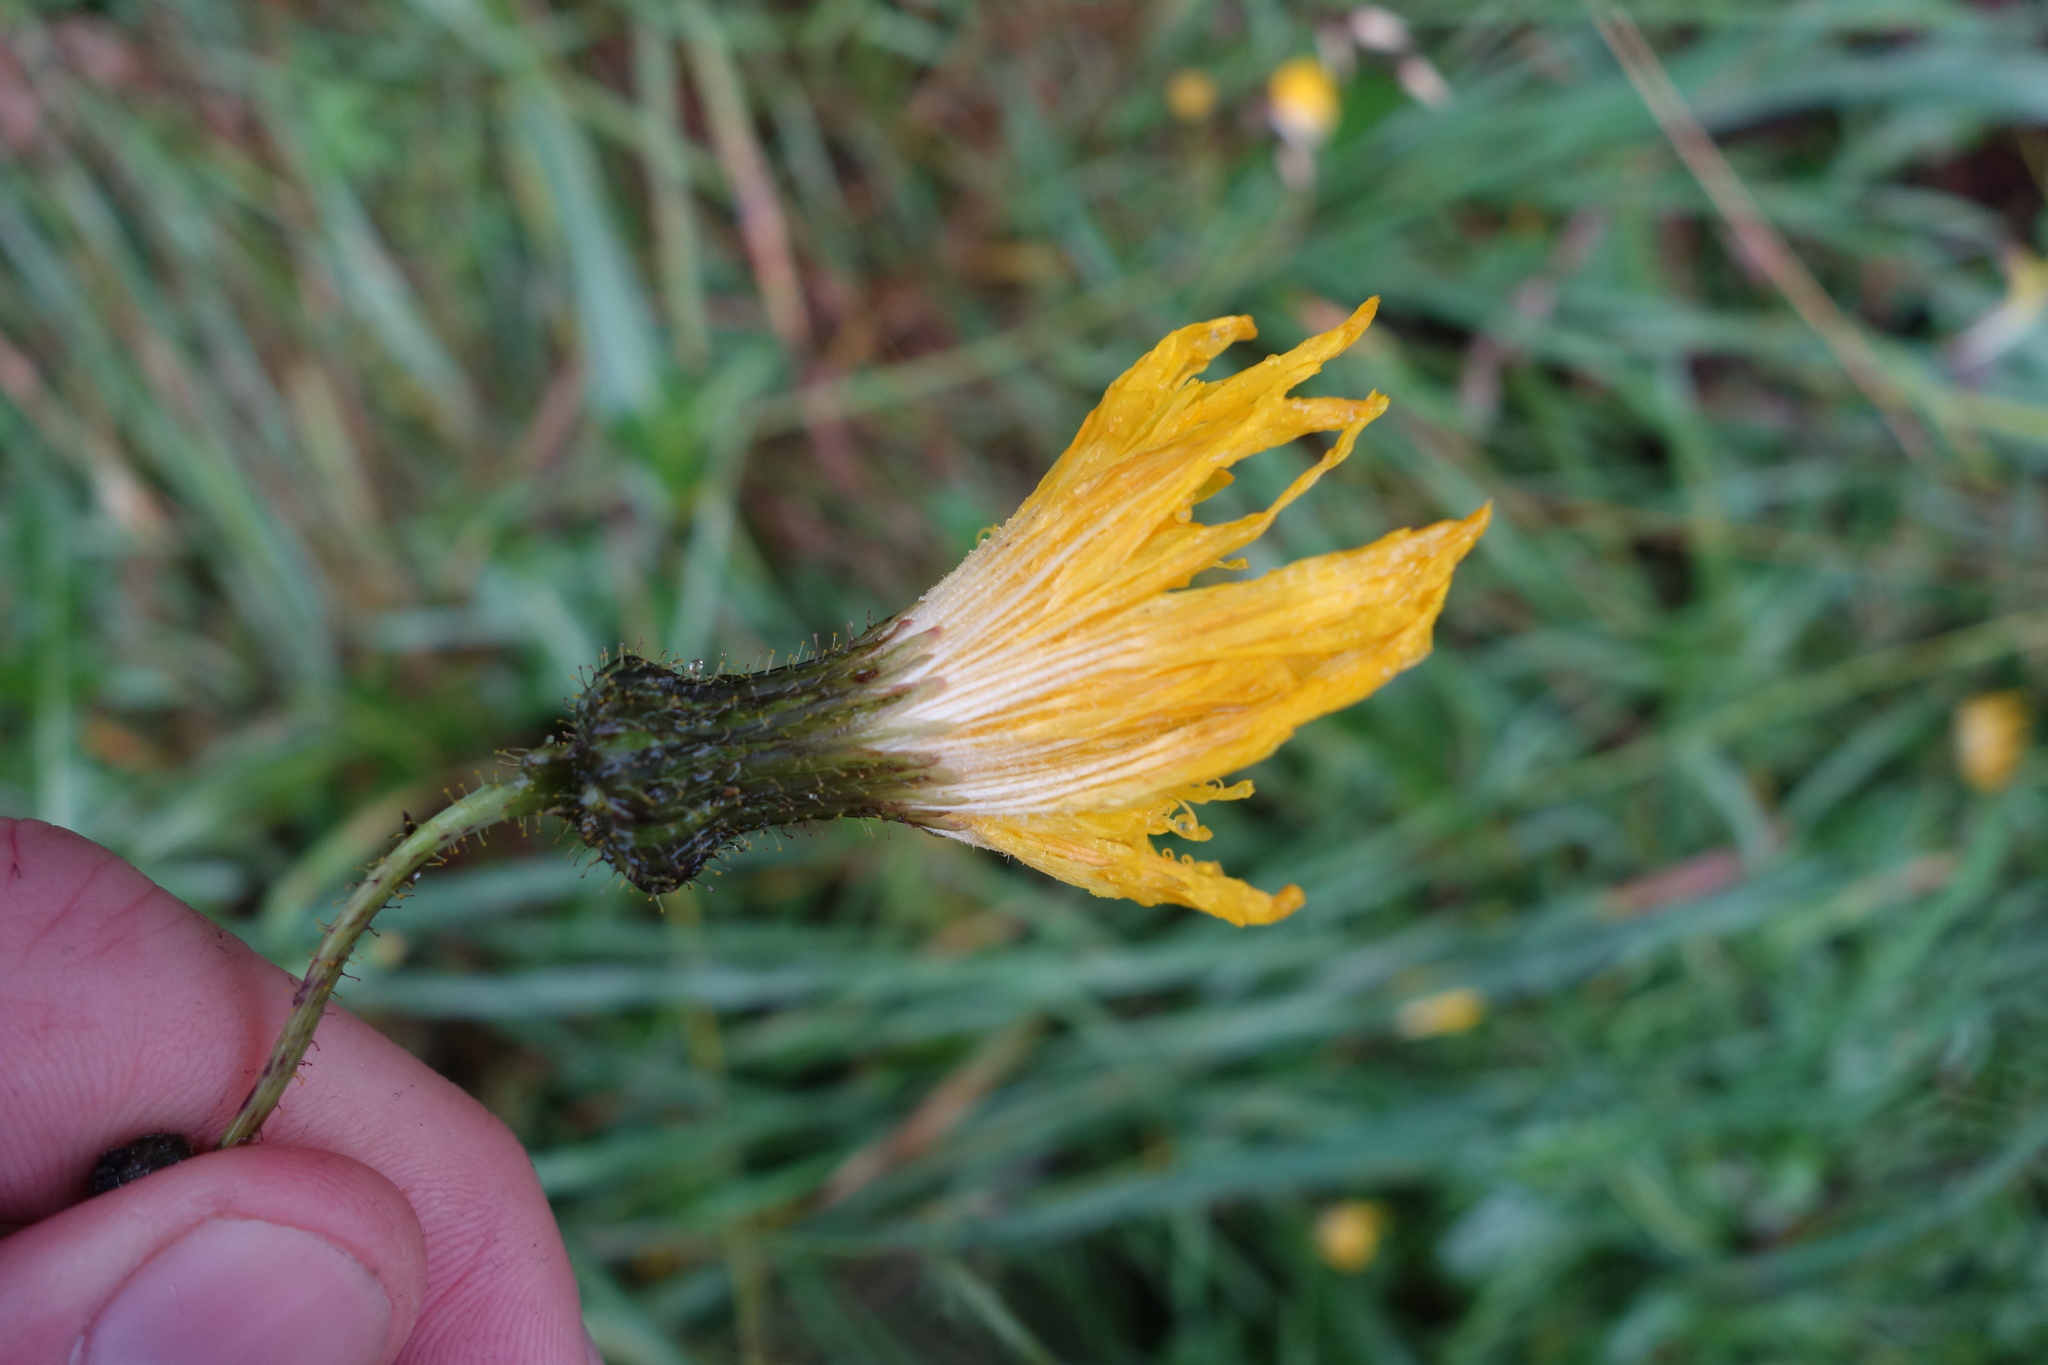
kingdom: Plantae
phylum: Tracheophyta
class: Magnoliopsida
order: Asterales
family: Asteraceae
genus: Sonchus
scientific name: Sonchus arvensis
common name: Perennial sow-thistle
